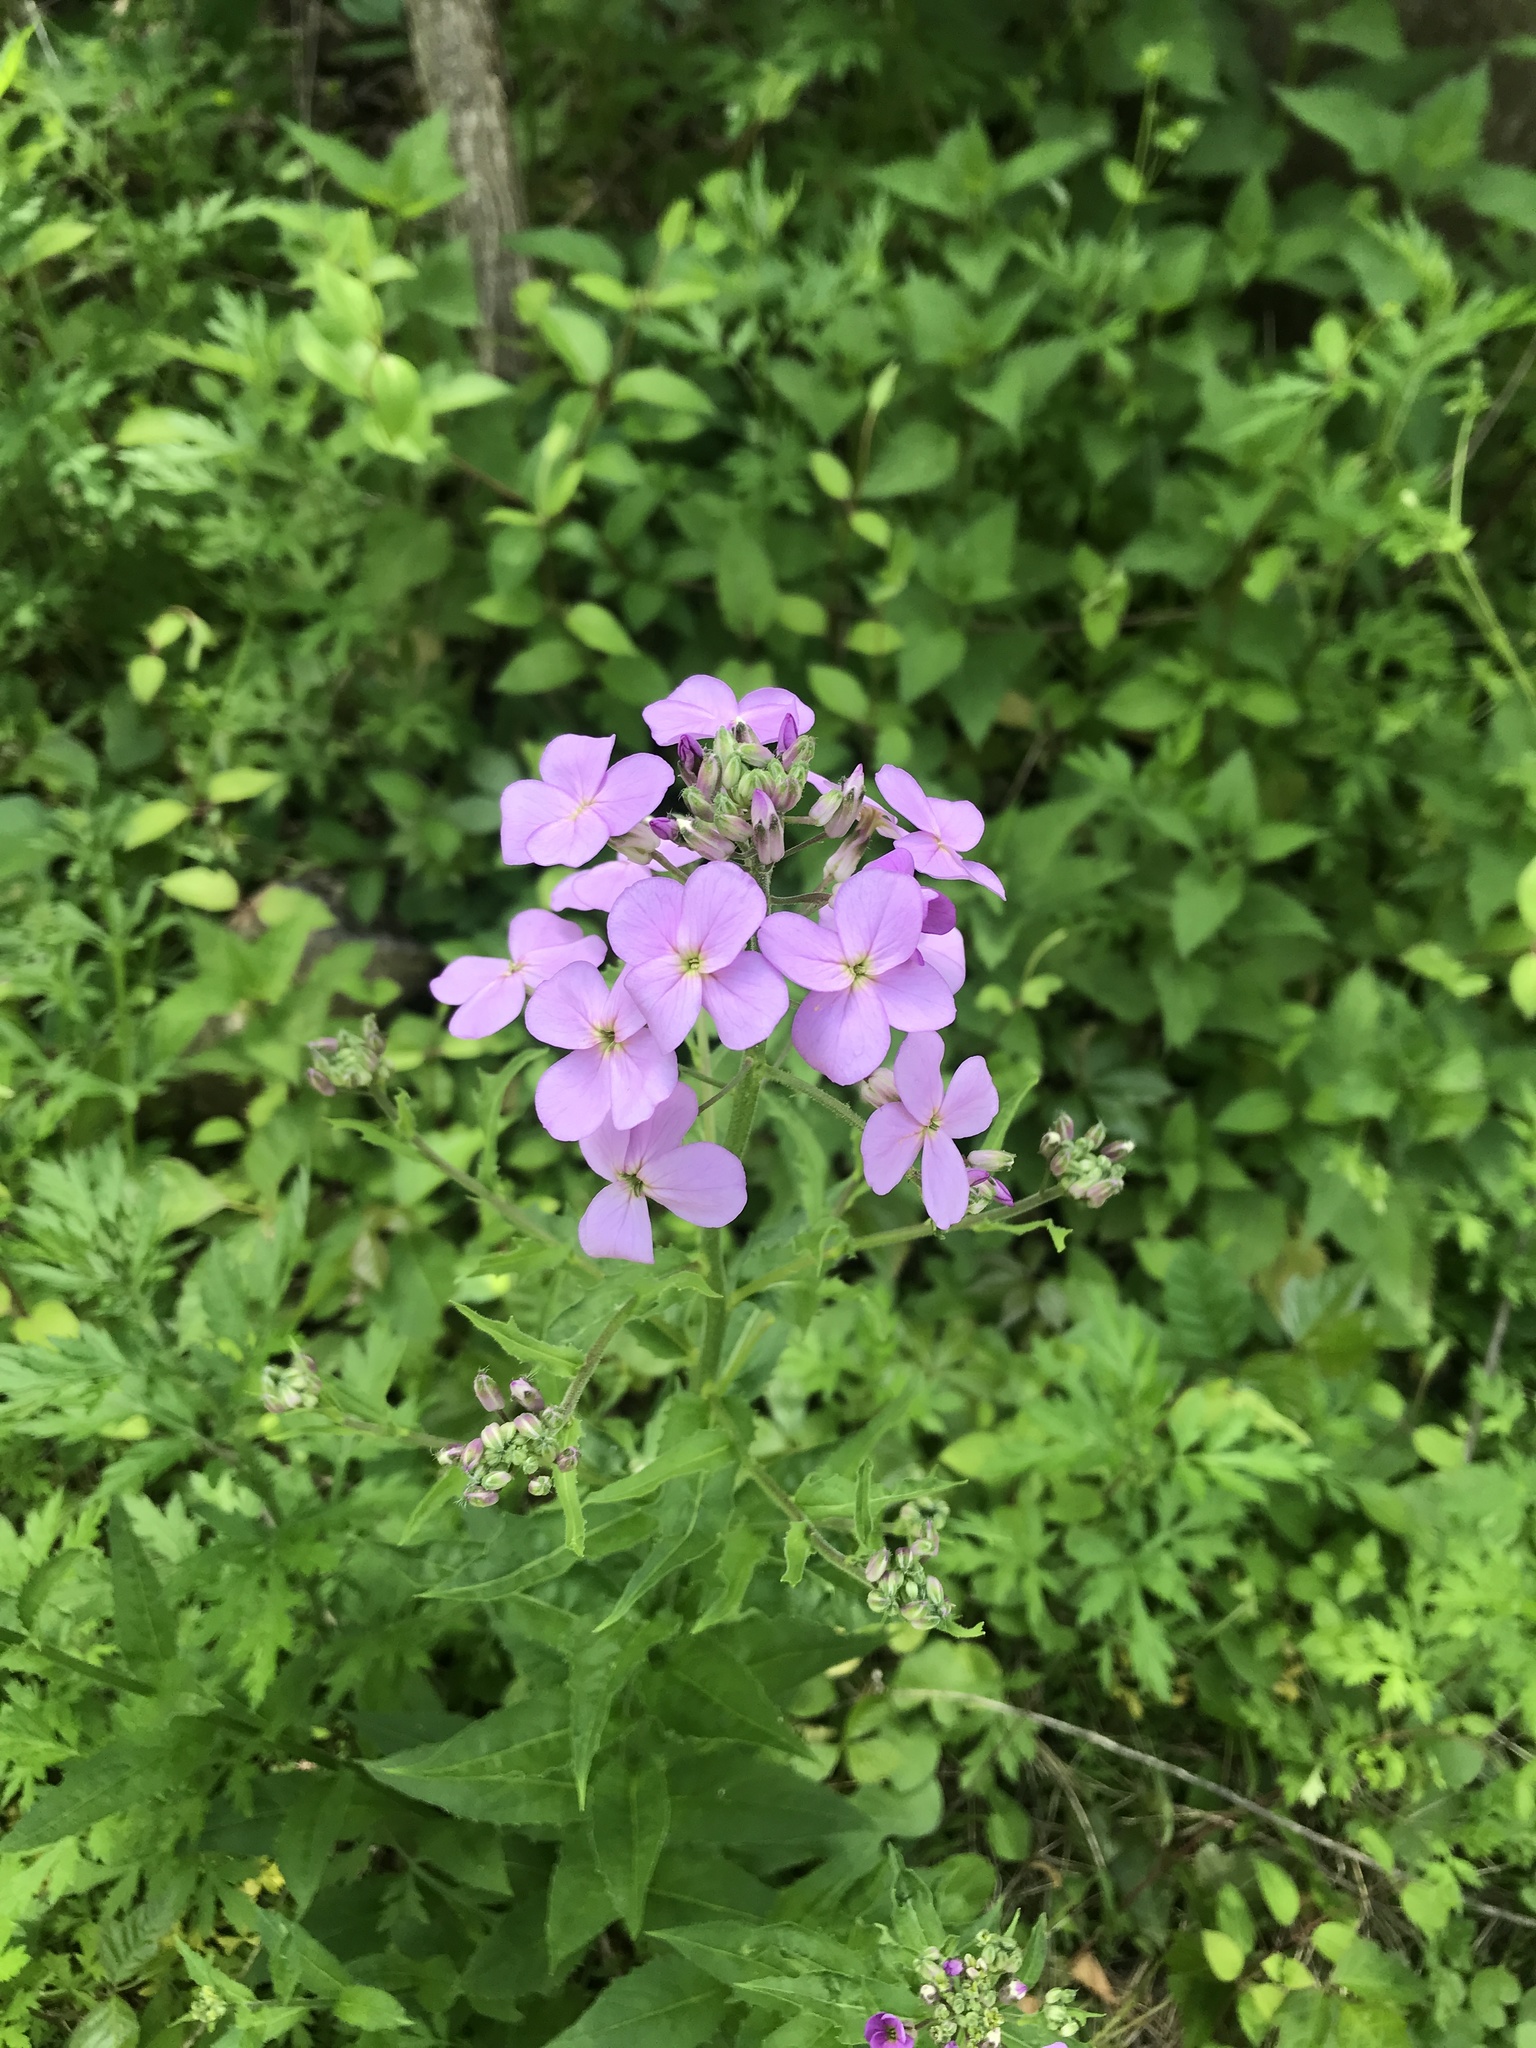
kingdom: Plantae
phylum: Tracheophyta
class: Magnoliopsida
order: Brassicales
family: Brassicaceae
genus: Hesperis
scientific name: Hesperis matronalis
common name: Dame's-violet
